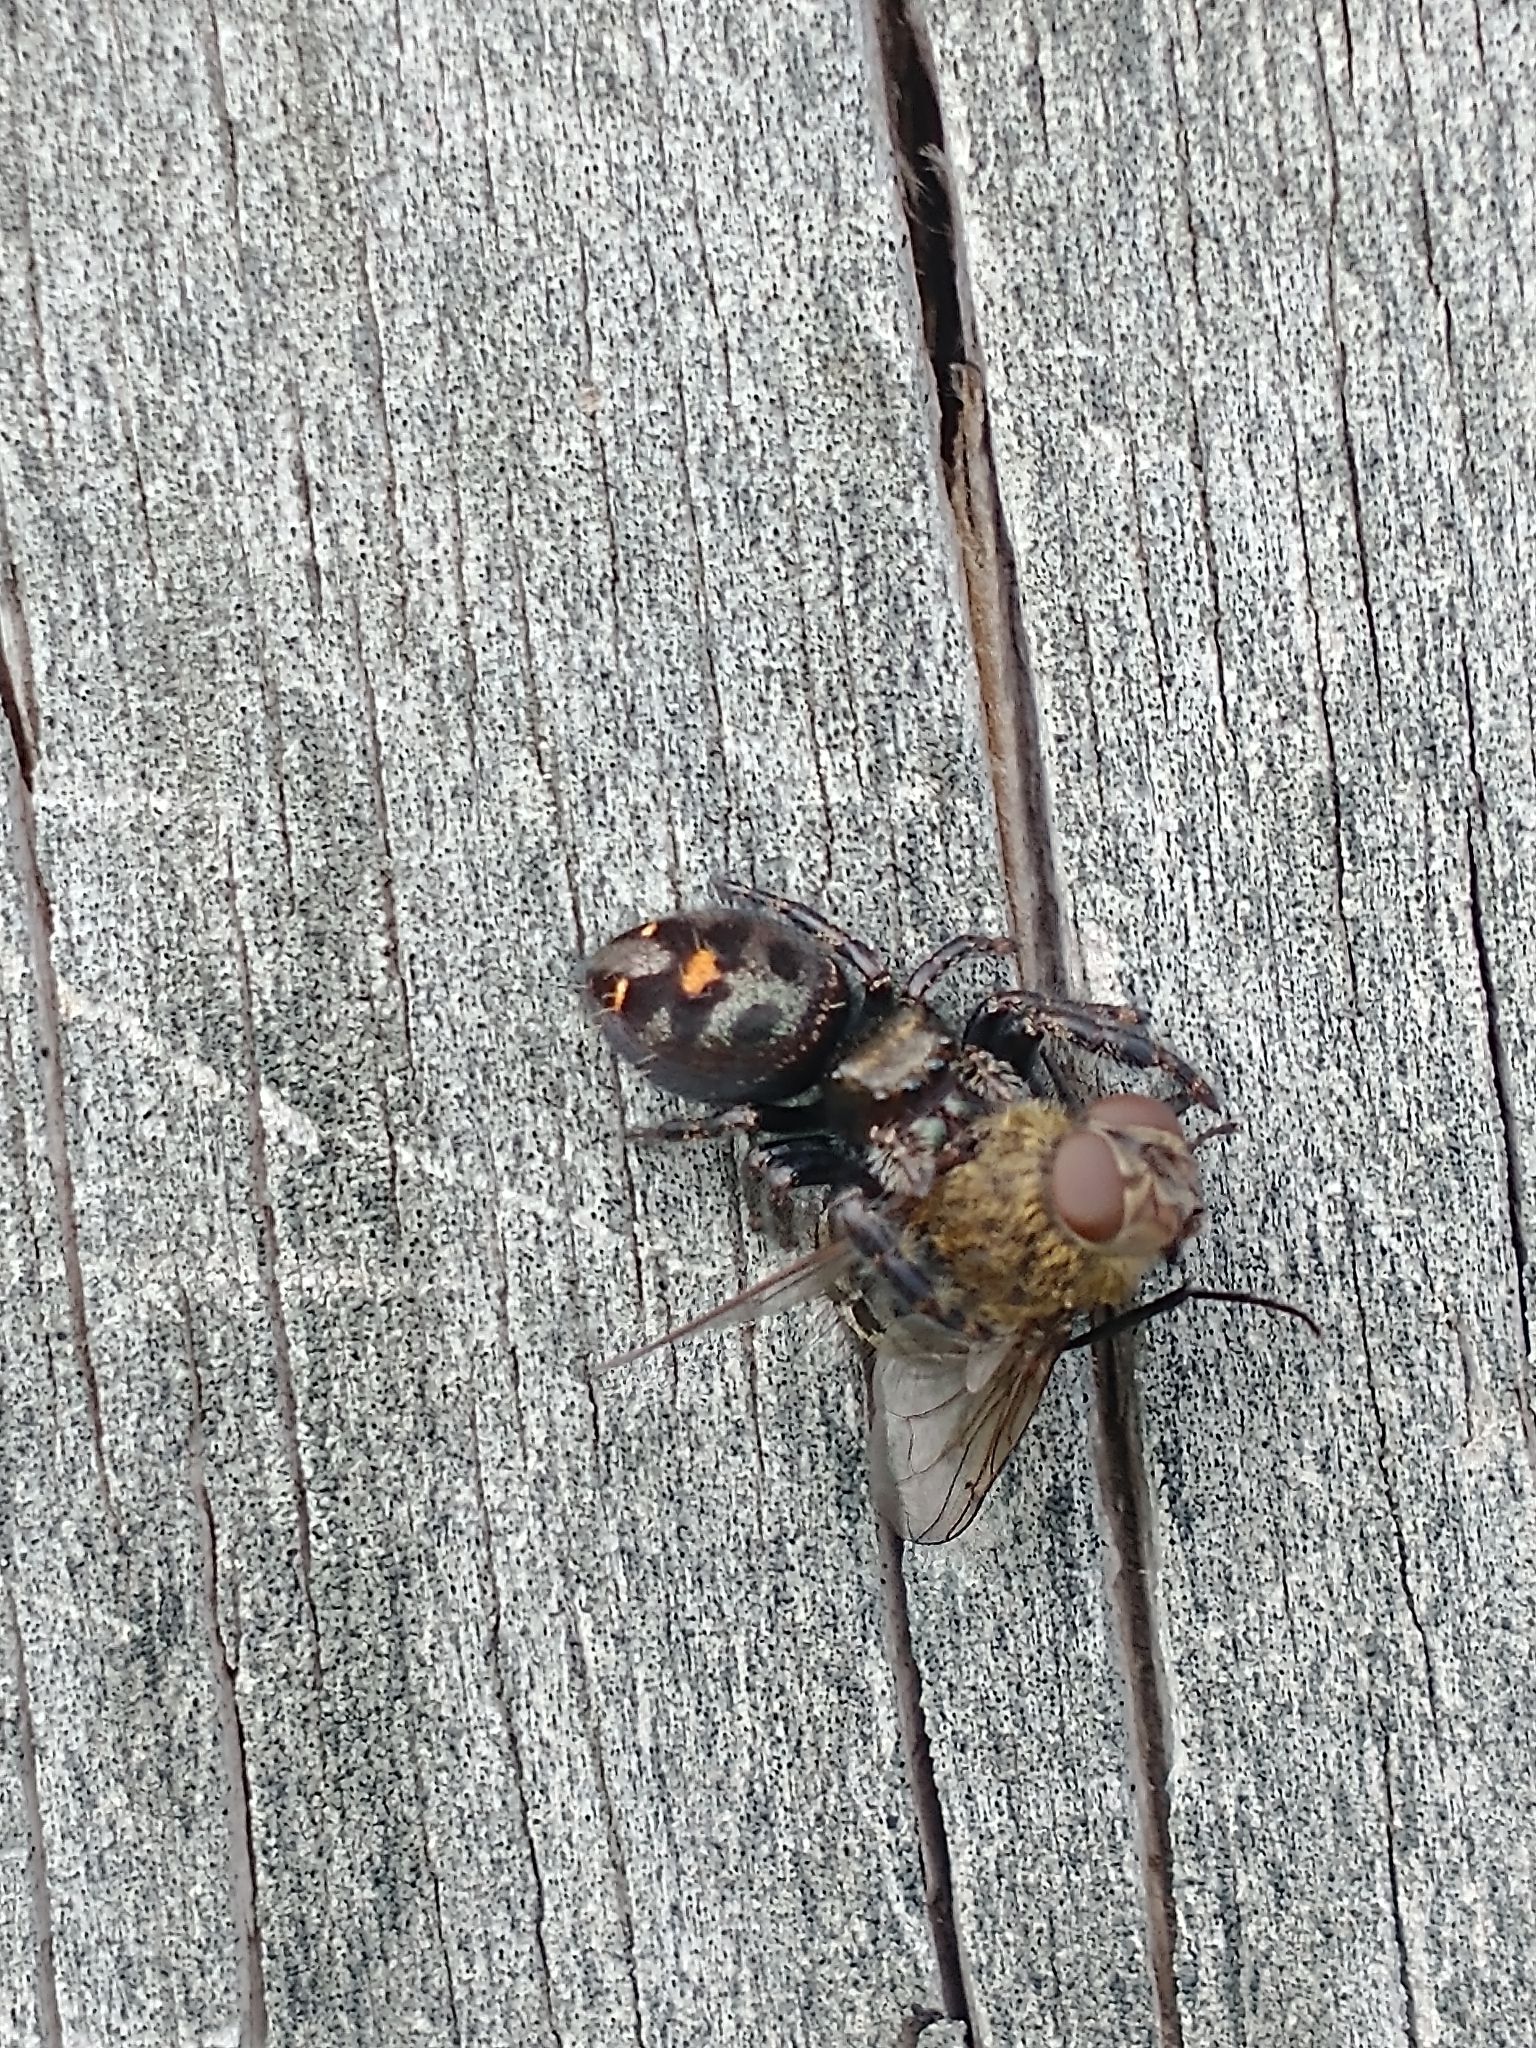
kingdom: Animalia
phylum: Arthropoda
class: Arachnida
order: Araneae
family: Salticidae
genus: Phidippus
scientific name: Phidippus audax
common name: Bold jumper
